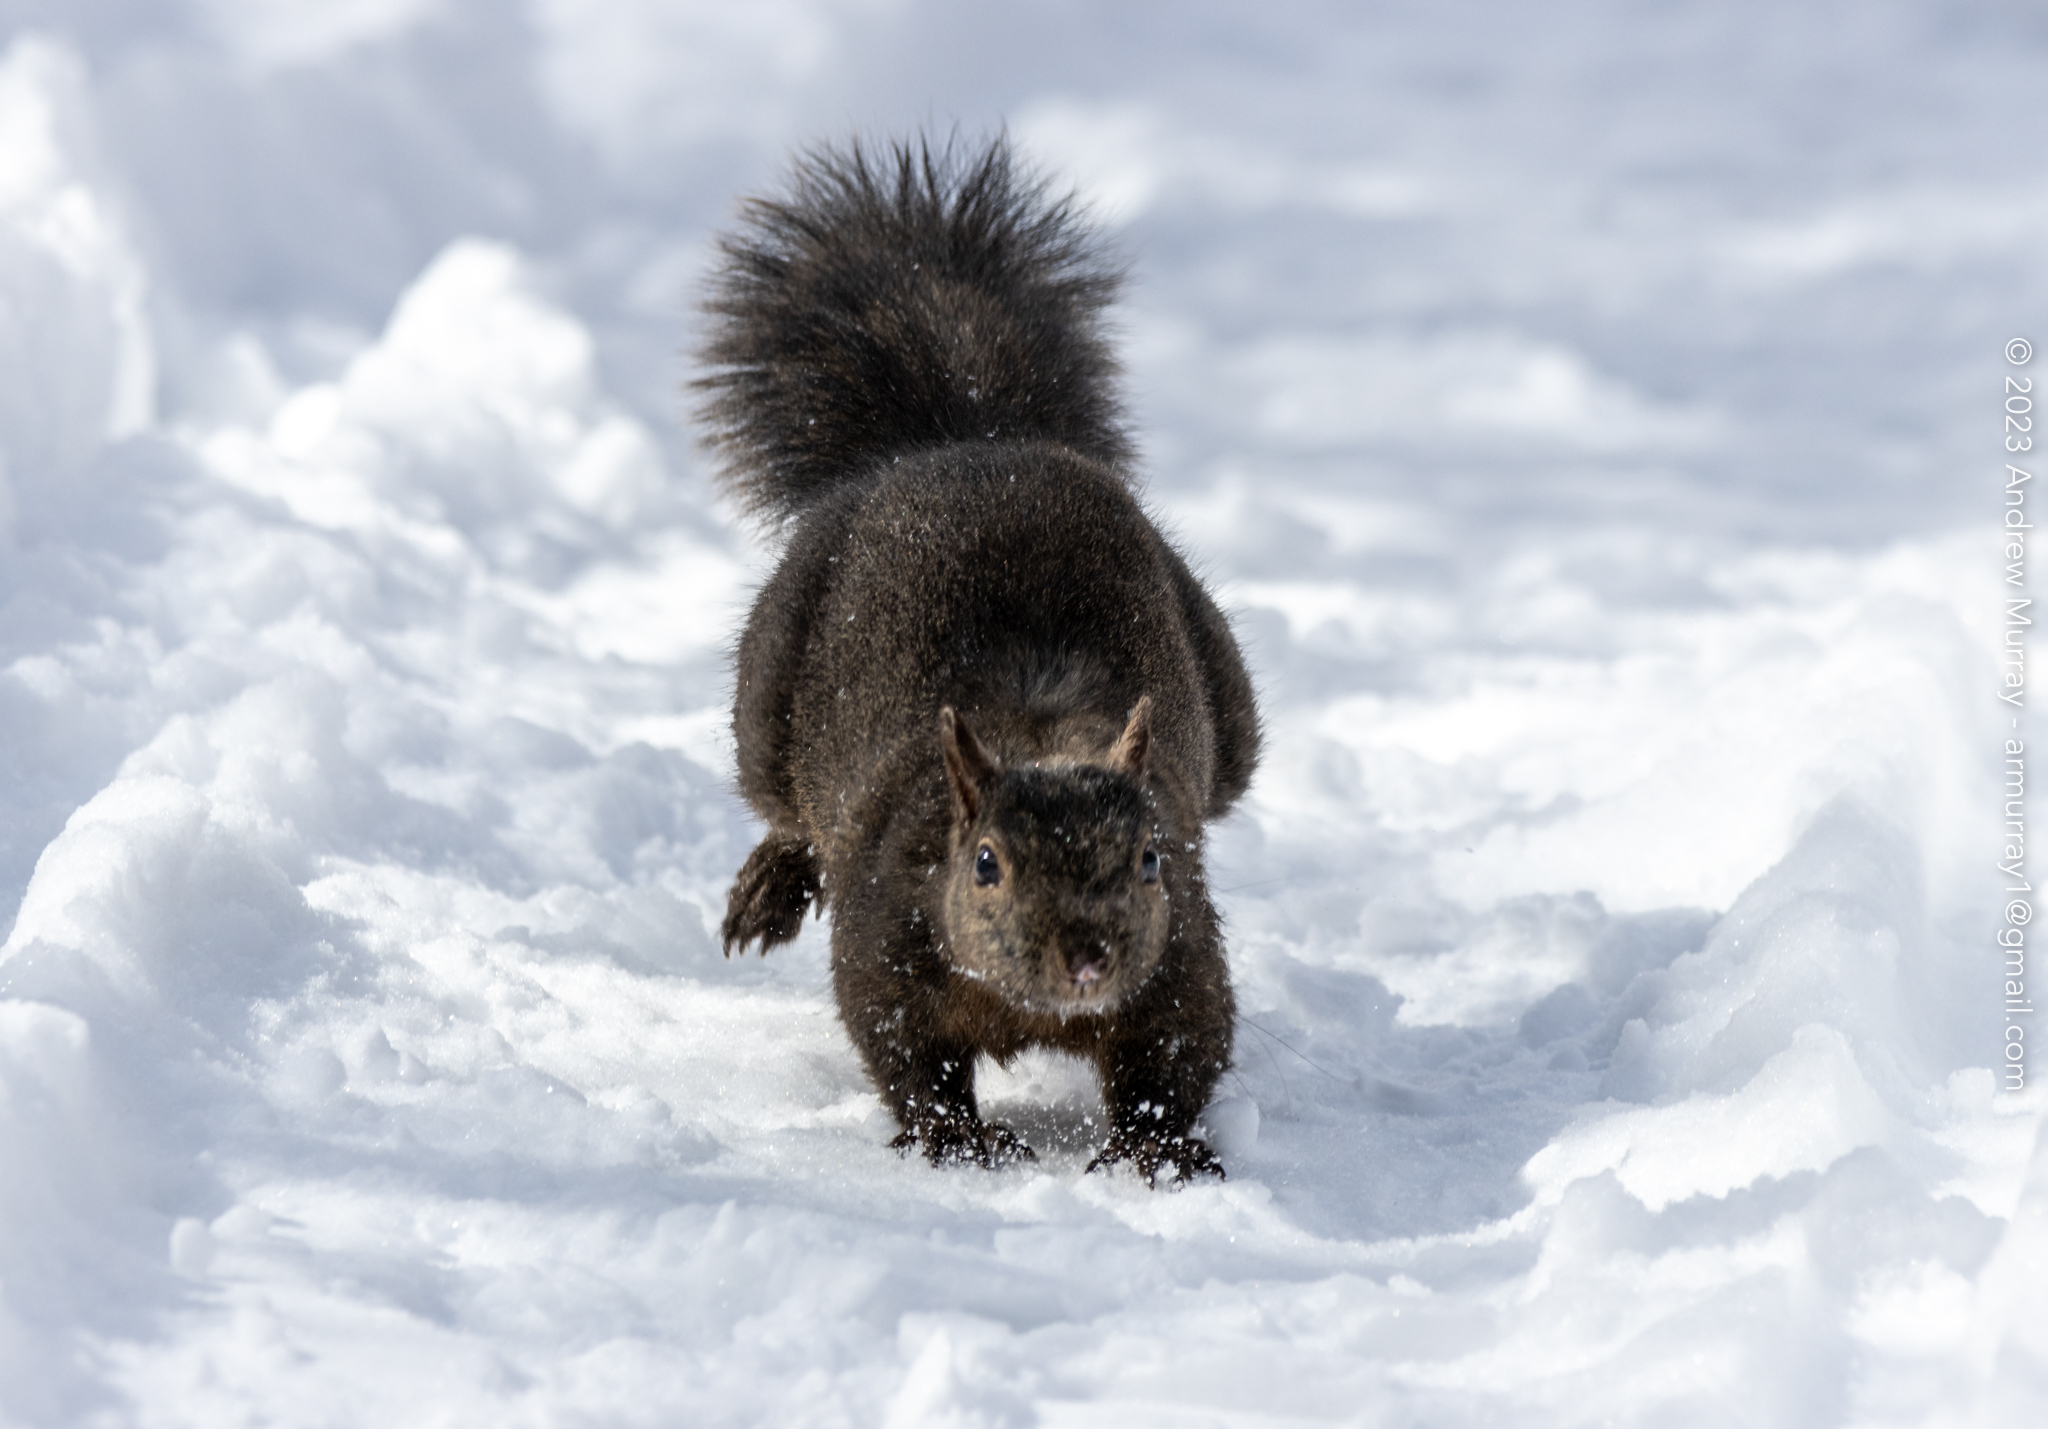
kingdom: Animalia
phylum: Chordata
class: Mammalia
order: Rodentia
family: Sciuridae
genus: Sciurus
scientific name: Sciurus carolinensis
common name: Eastern gray squirrel
